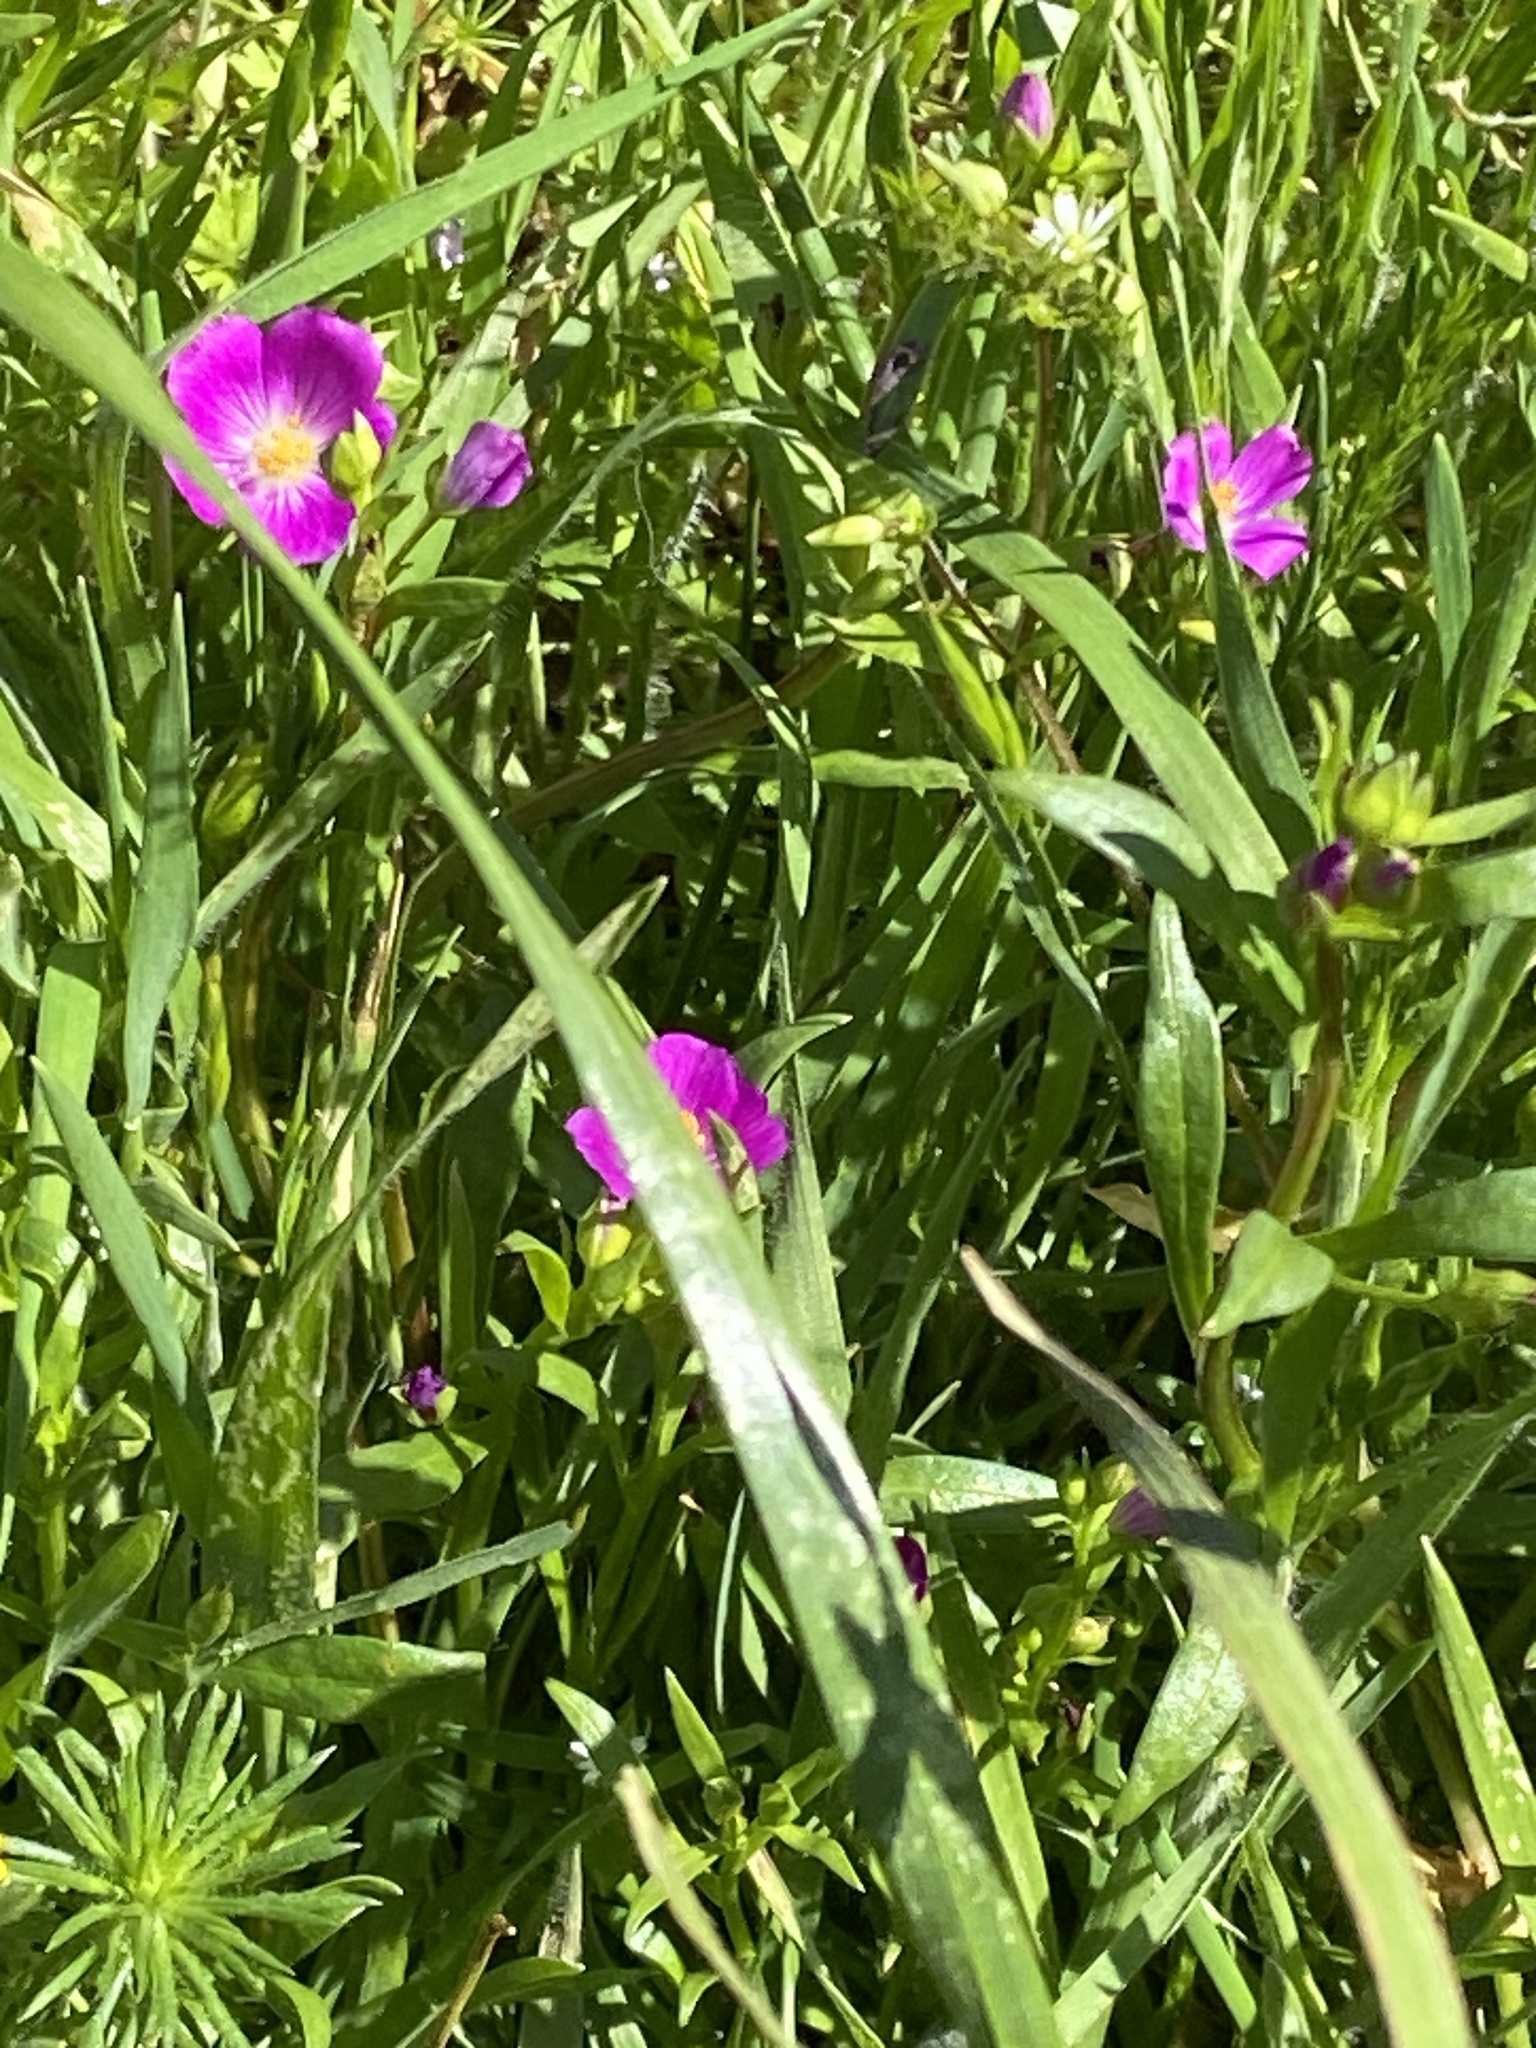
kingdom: Plantae
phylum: Tracheophyta
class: Magnoliopsida
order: Caryophyllales
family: Montiaceae
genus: Calandrinia
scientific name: Calandrinia menziesii
